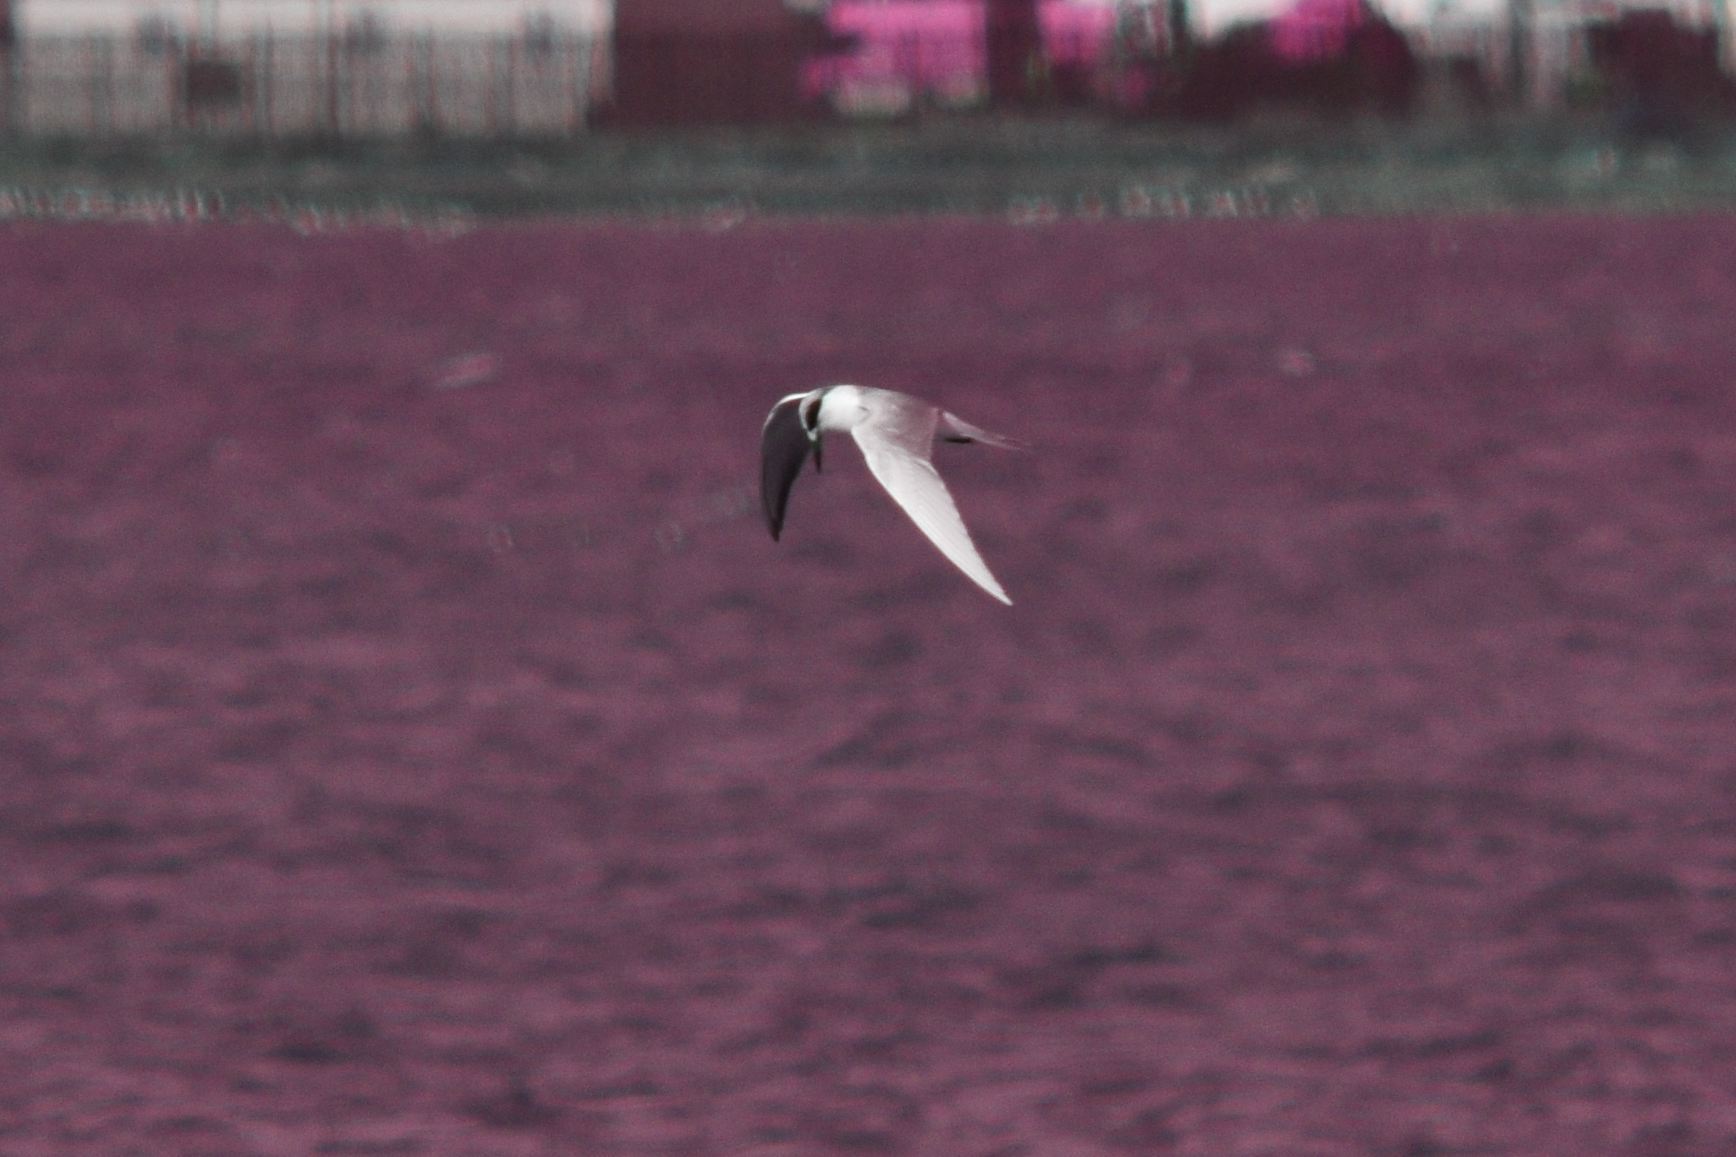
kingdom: Animalia
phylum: Chordata
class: Aves
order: Charadriiformes
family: Laridae
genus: Sterna
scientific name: Sterna forsteri
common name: Forster's tern
